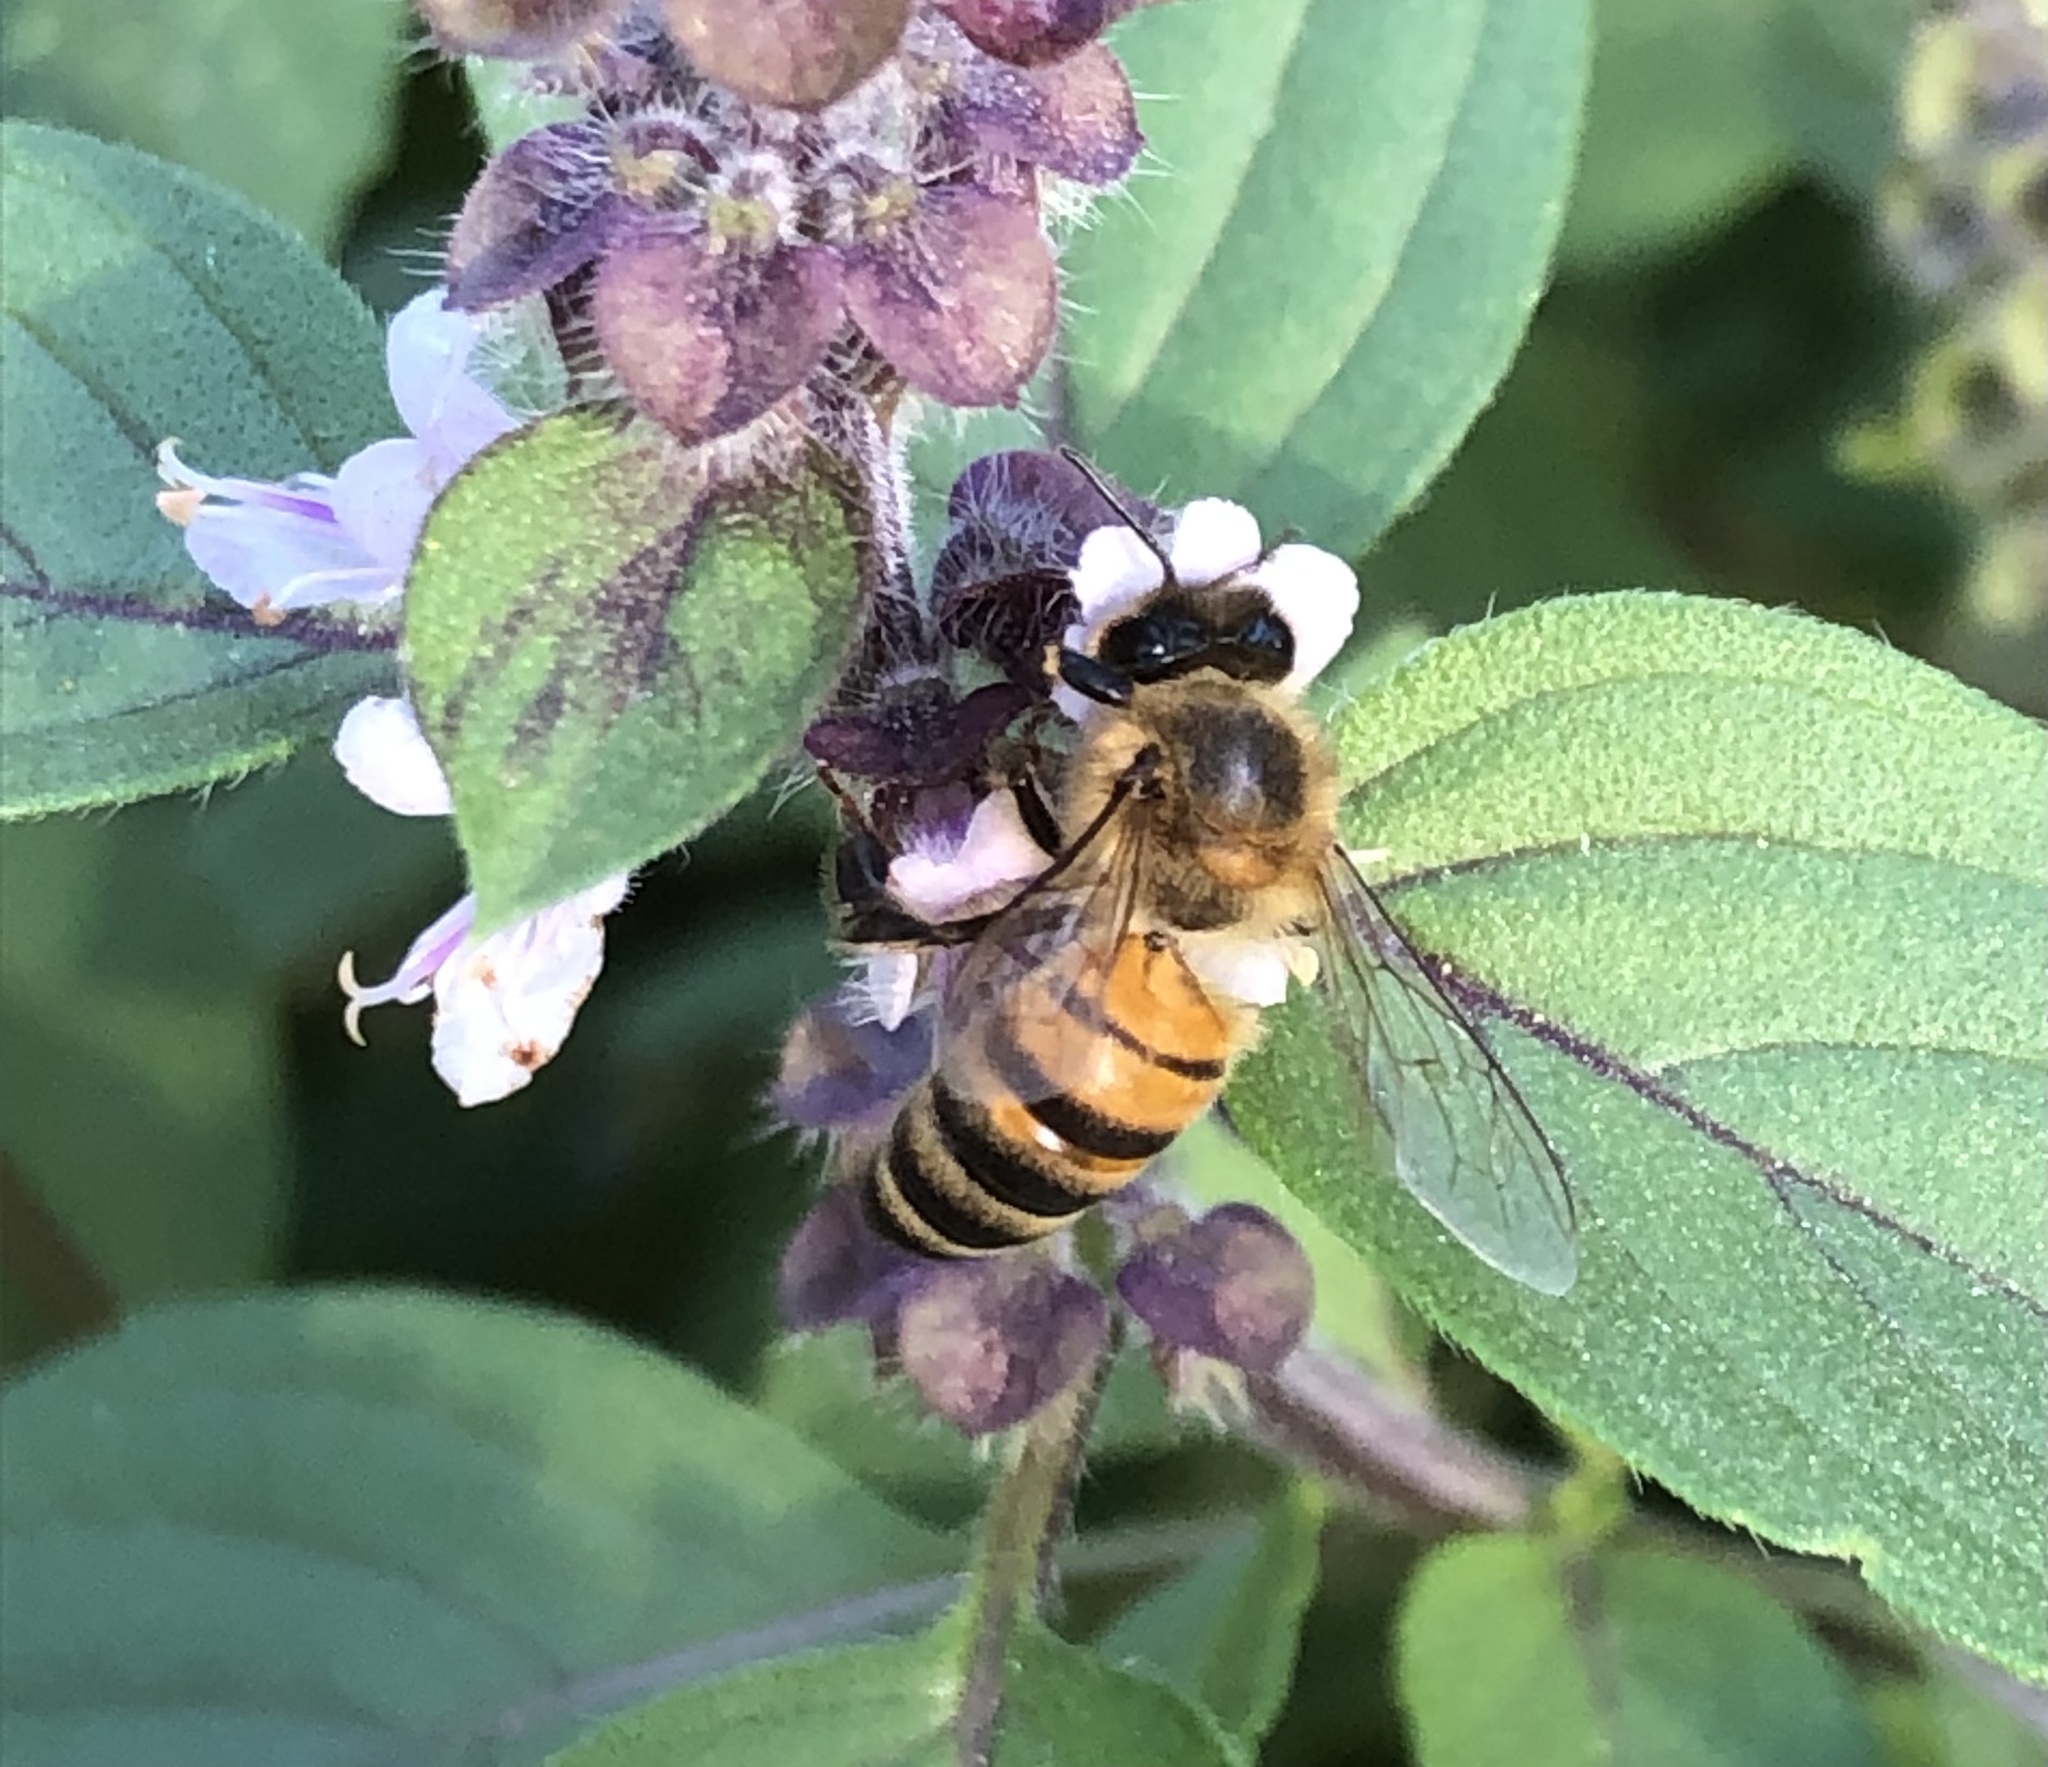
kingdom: Animalia
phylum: Arthropoda
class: Insecta
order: Hymenoptera
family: Apidae
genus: Apis
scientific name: Apis mellifera
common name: Honey bee
